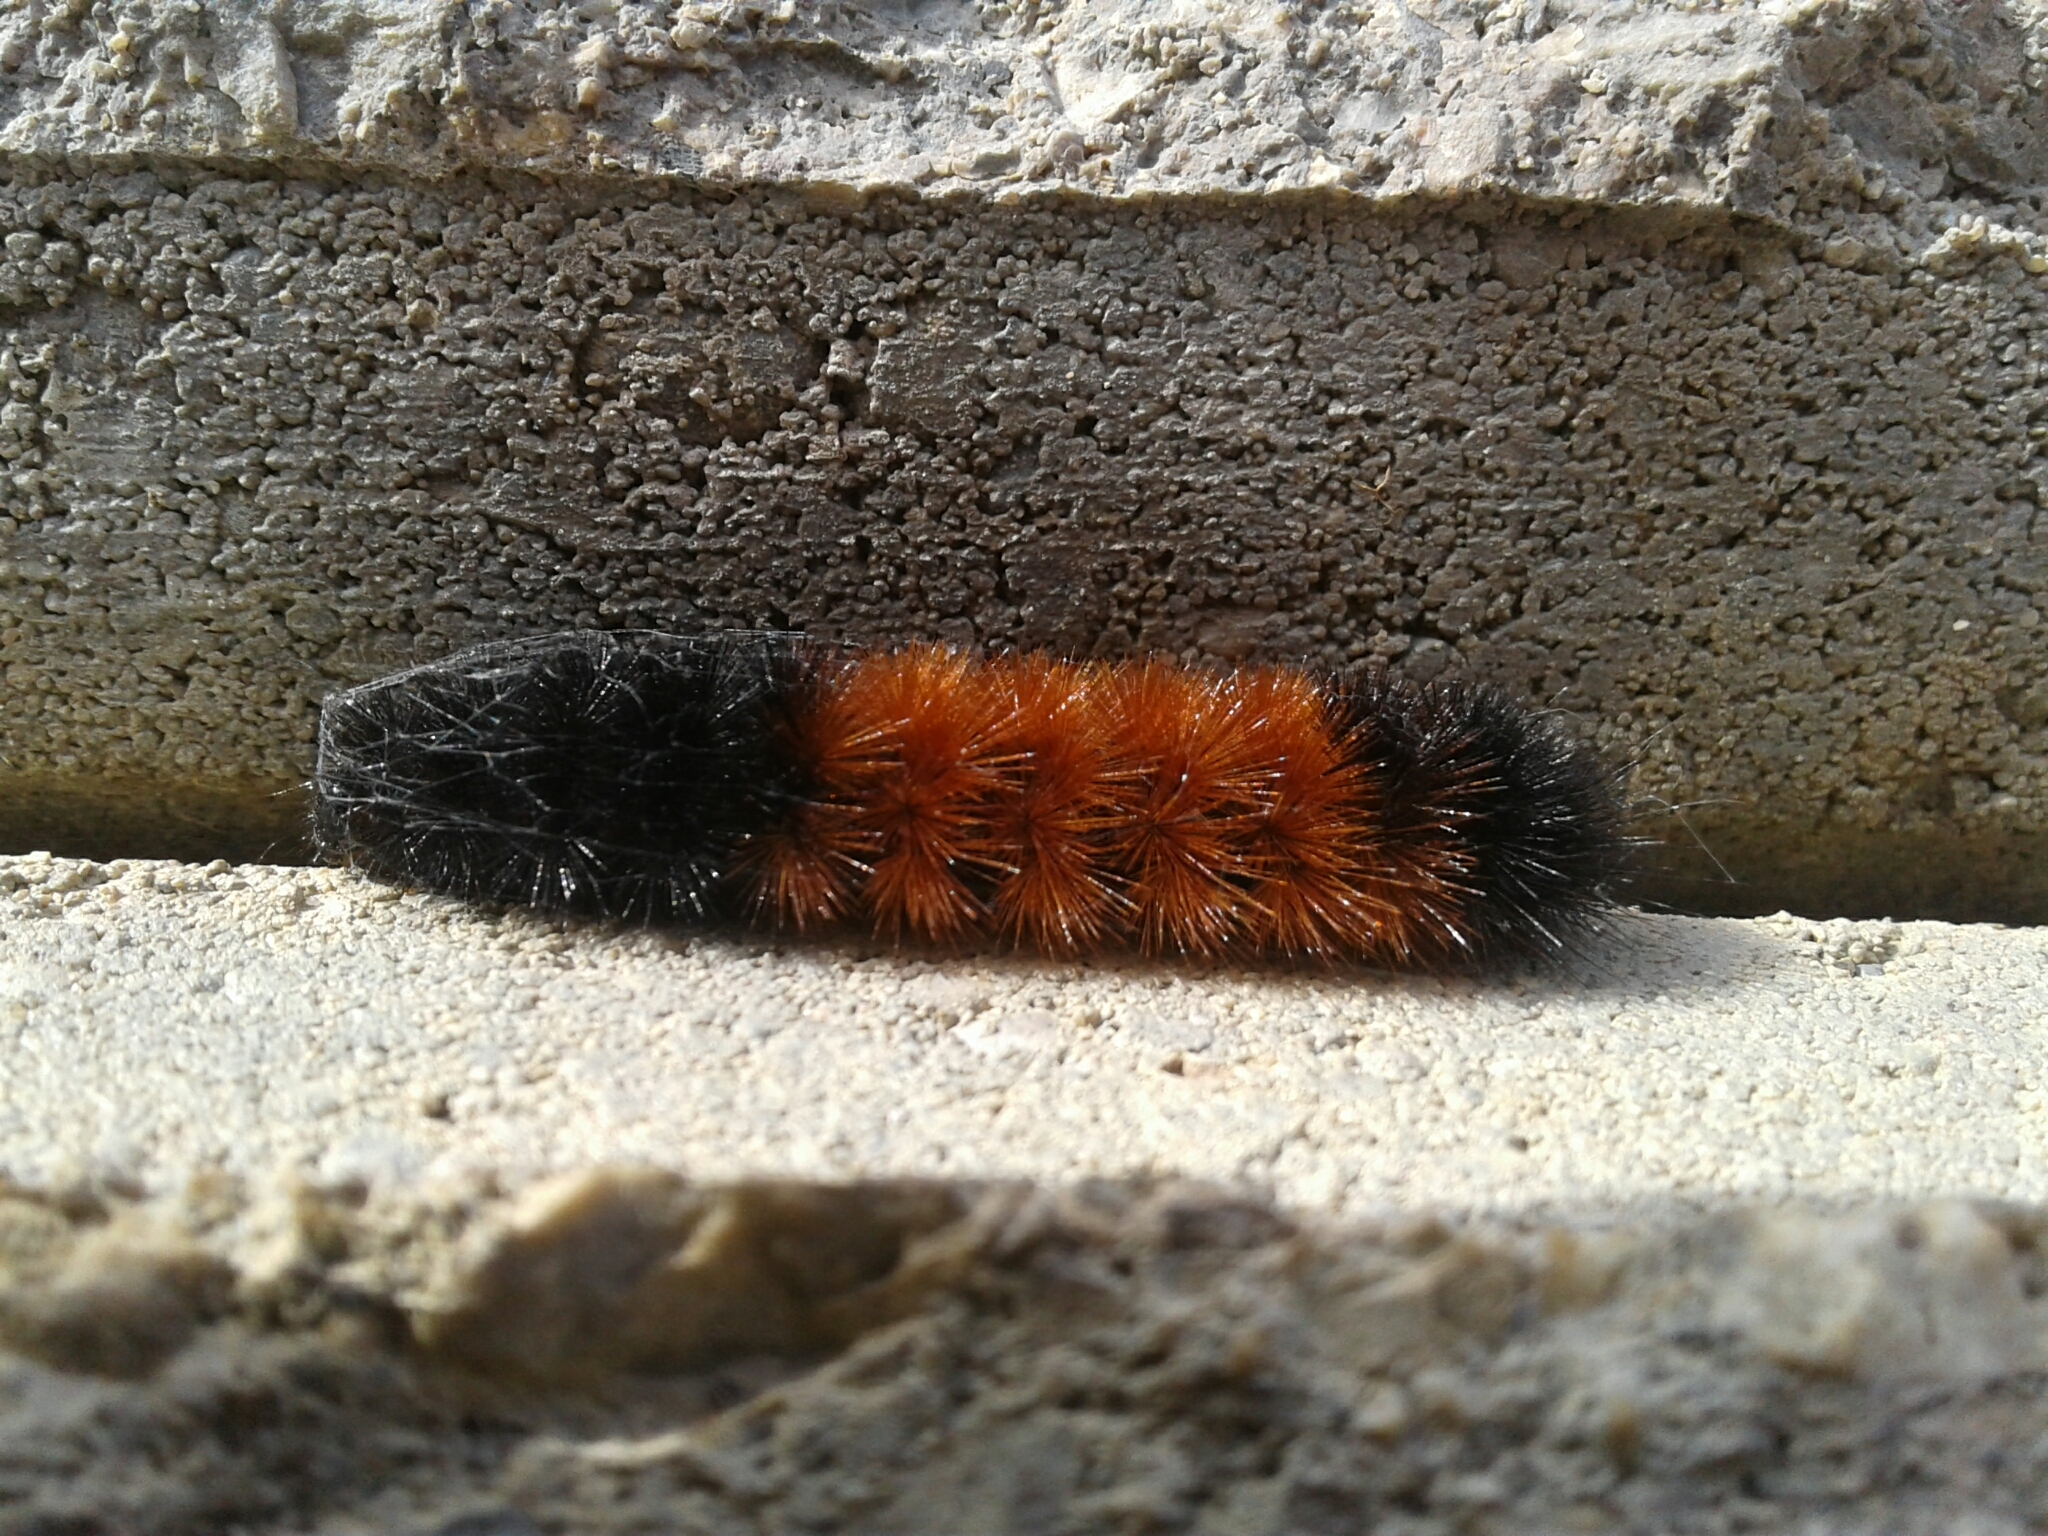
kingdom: Animalia
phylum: Arthropoda
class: Insecta
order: Lepidoptera
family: Erebidae
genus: Pyrrharctia
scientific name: Pyrrharctia isabella
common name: Isabella tiger moth
